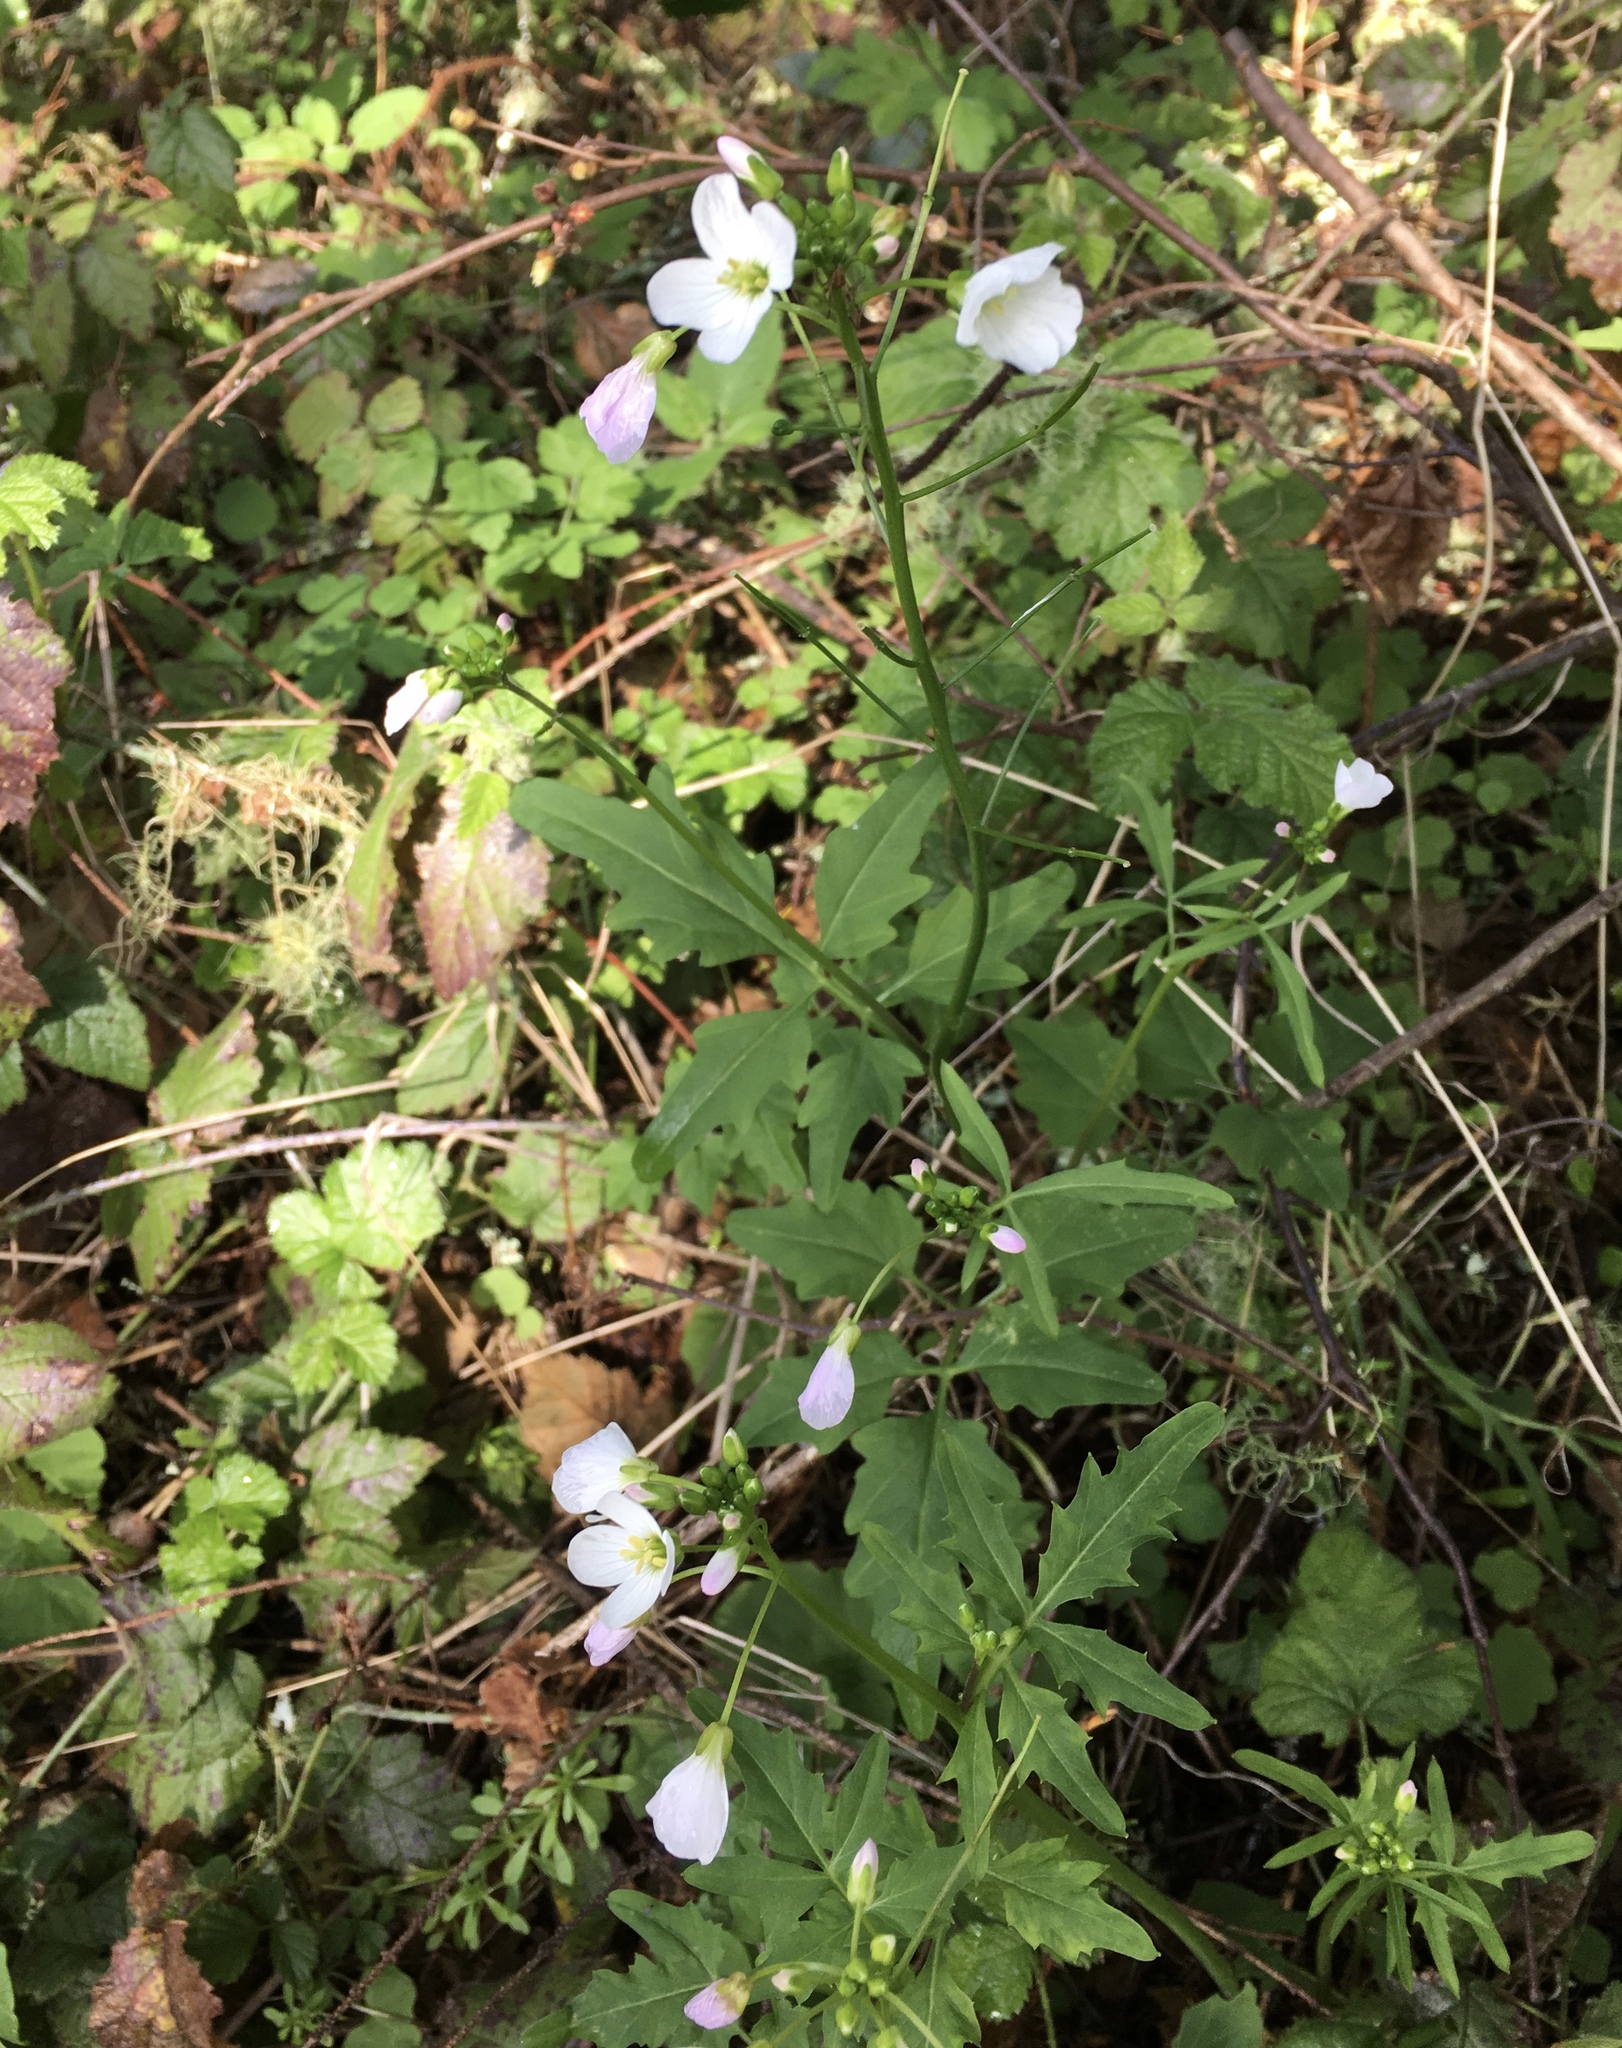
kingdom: Plantae
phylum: Tracheophyta
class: Magnoliopsida
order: Brassicales
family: Brassicaceae
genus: Cardamine
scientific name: Cardamine californica
